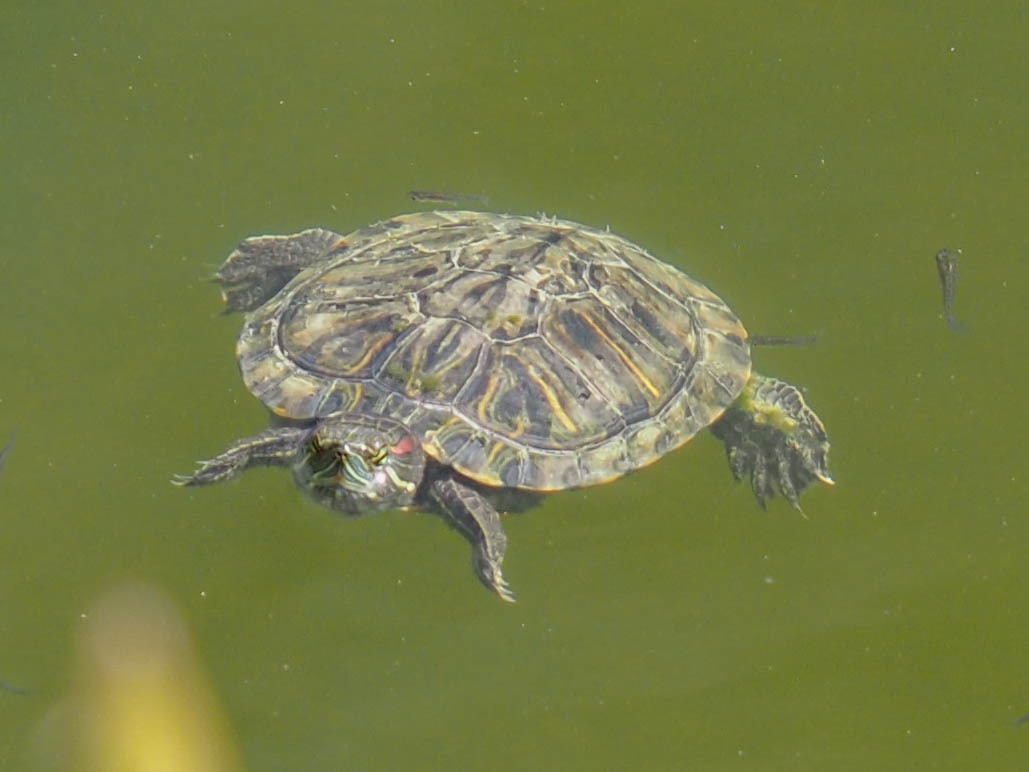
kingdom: Animalia
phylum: Chordata
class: Testudines
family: Emydidae
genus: Trachemys
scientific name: Trachemys scripta
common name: Slider
